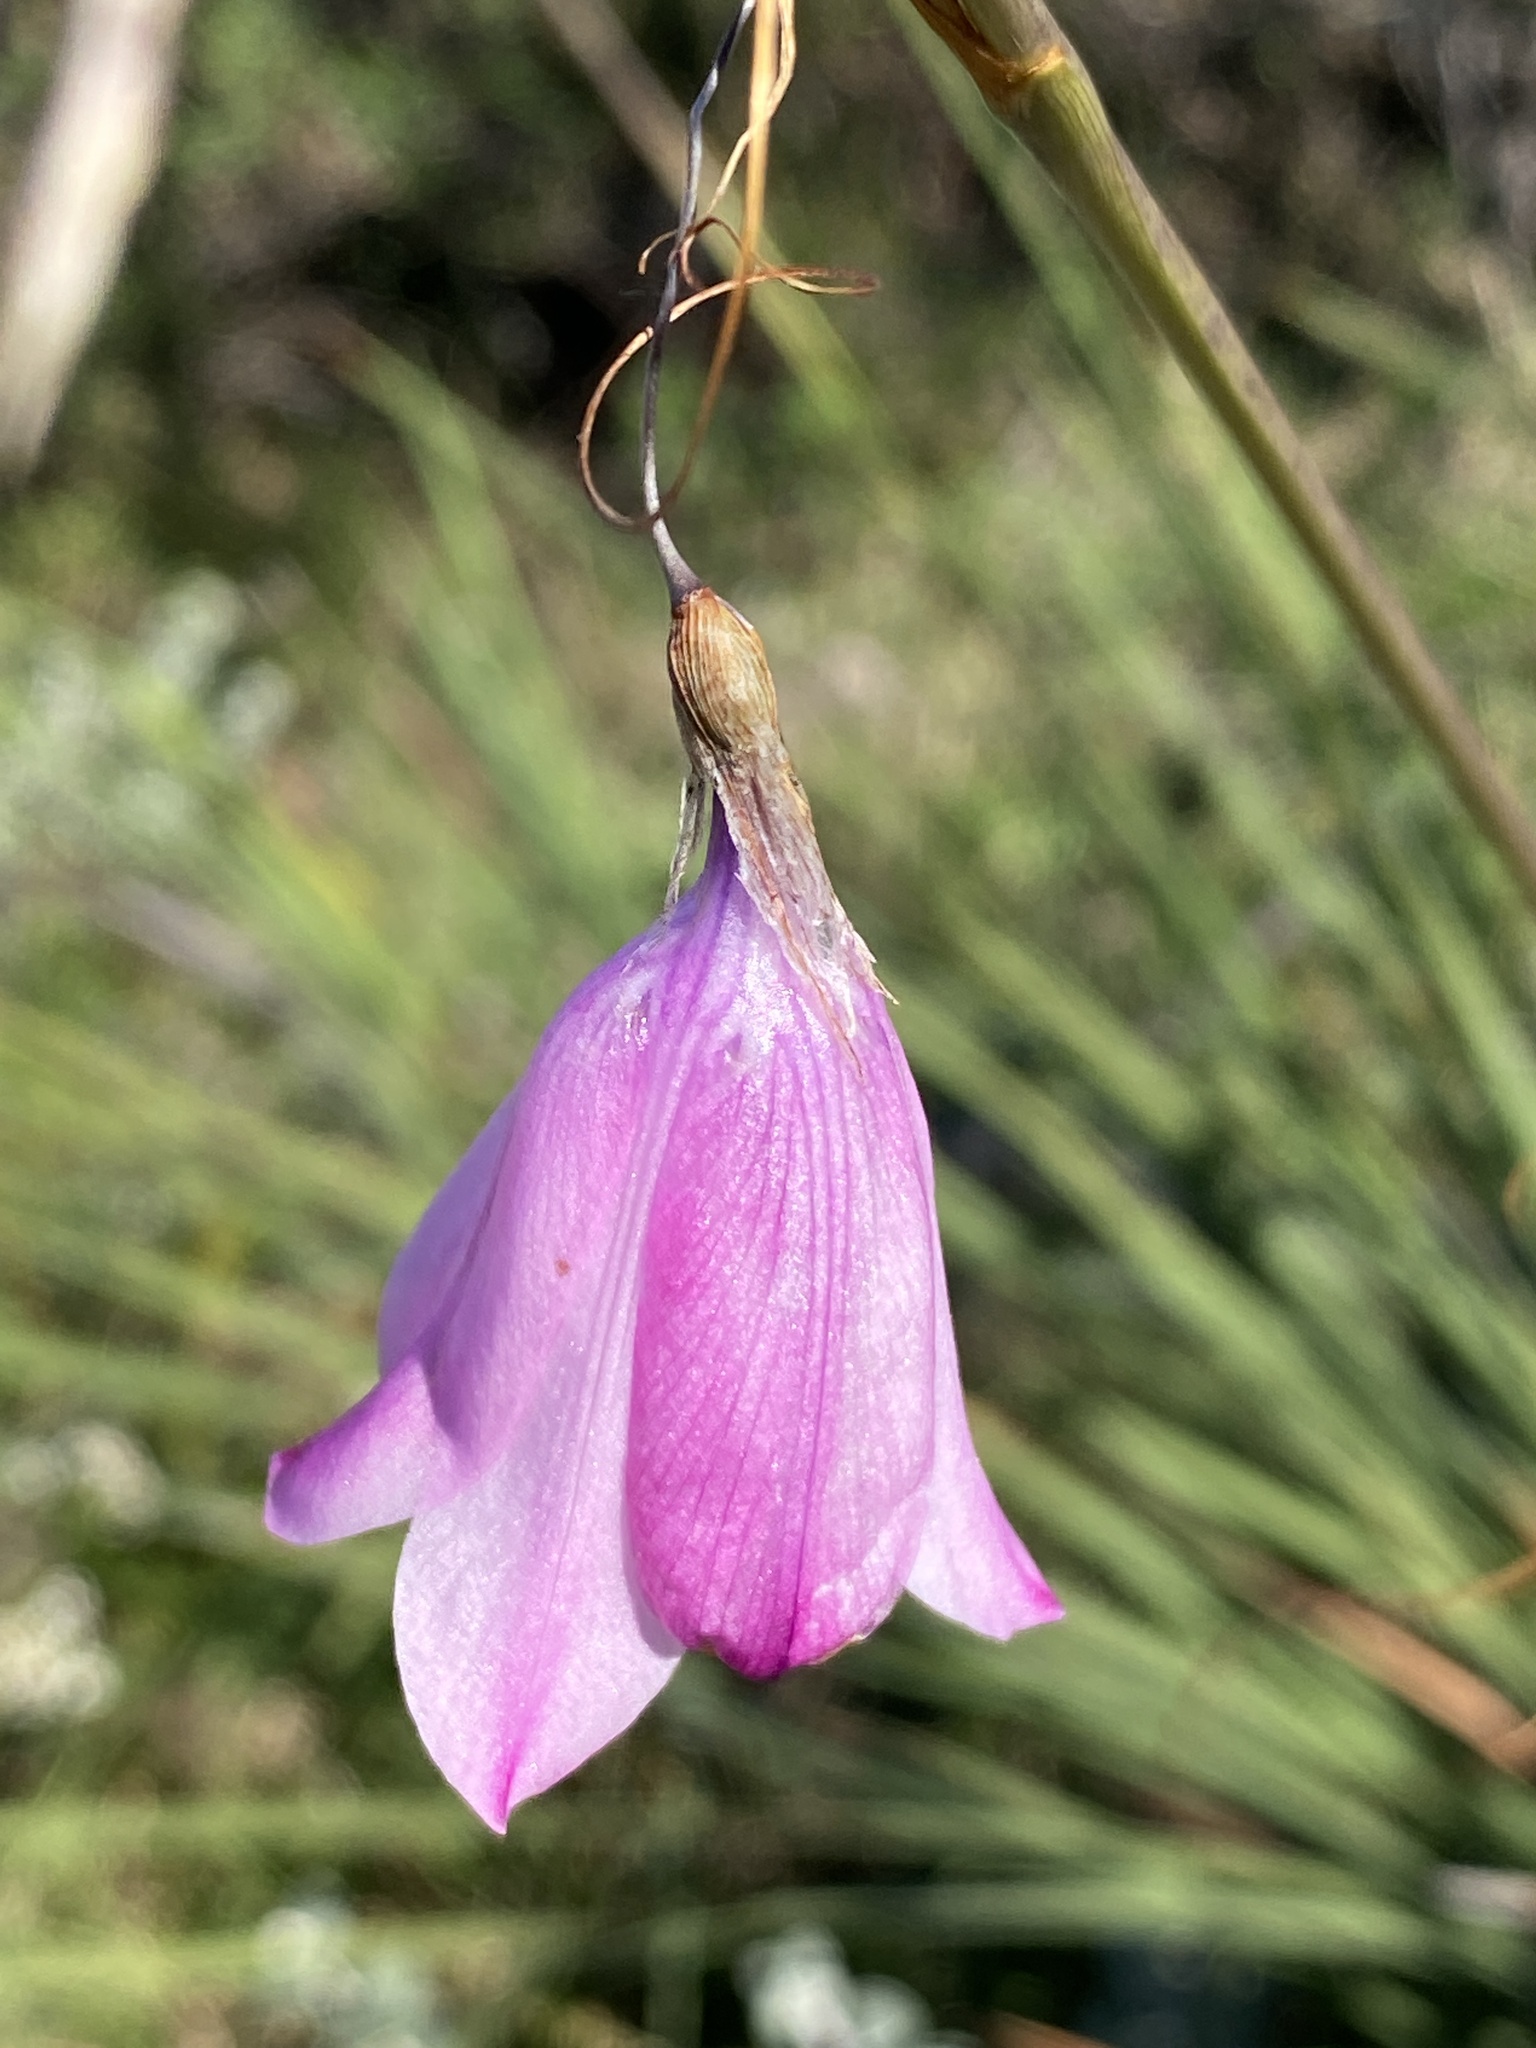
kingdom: Plantae
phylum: Tracheophyta
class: Liliopsida
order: Asparagales
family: Iridaceae
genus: Dierama
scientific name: Dierama pendulum
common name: Grassy-bell
